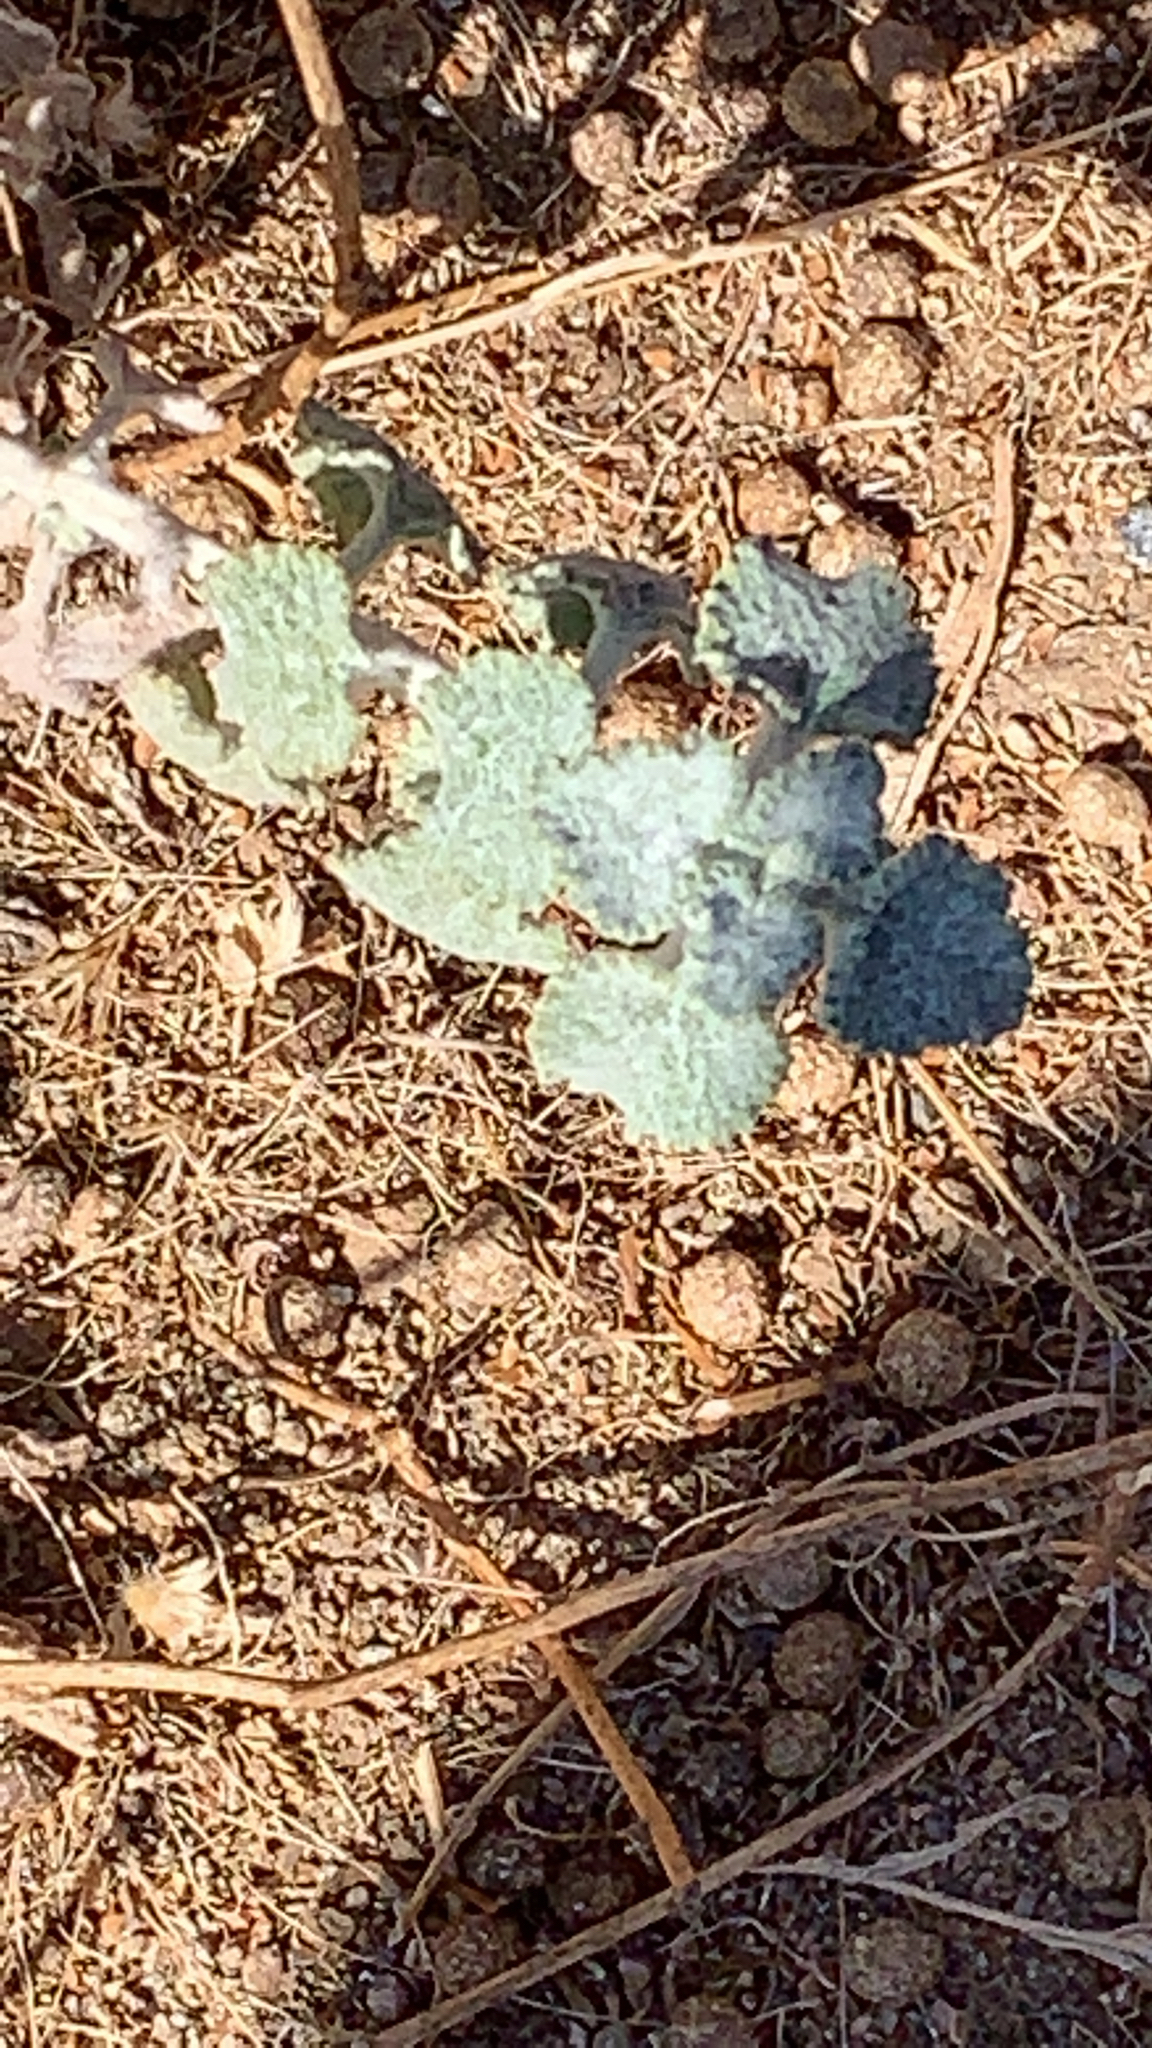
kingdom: Plantae
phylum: Tracheophyta
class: Magnoliopsida
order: Lamiales
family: Lamiaceae
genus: Marrubium
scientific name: Marrubium vulgare
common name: Horehound
